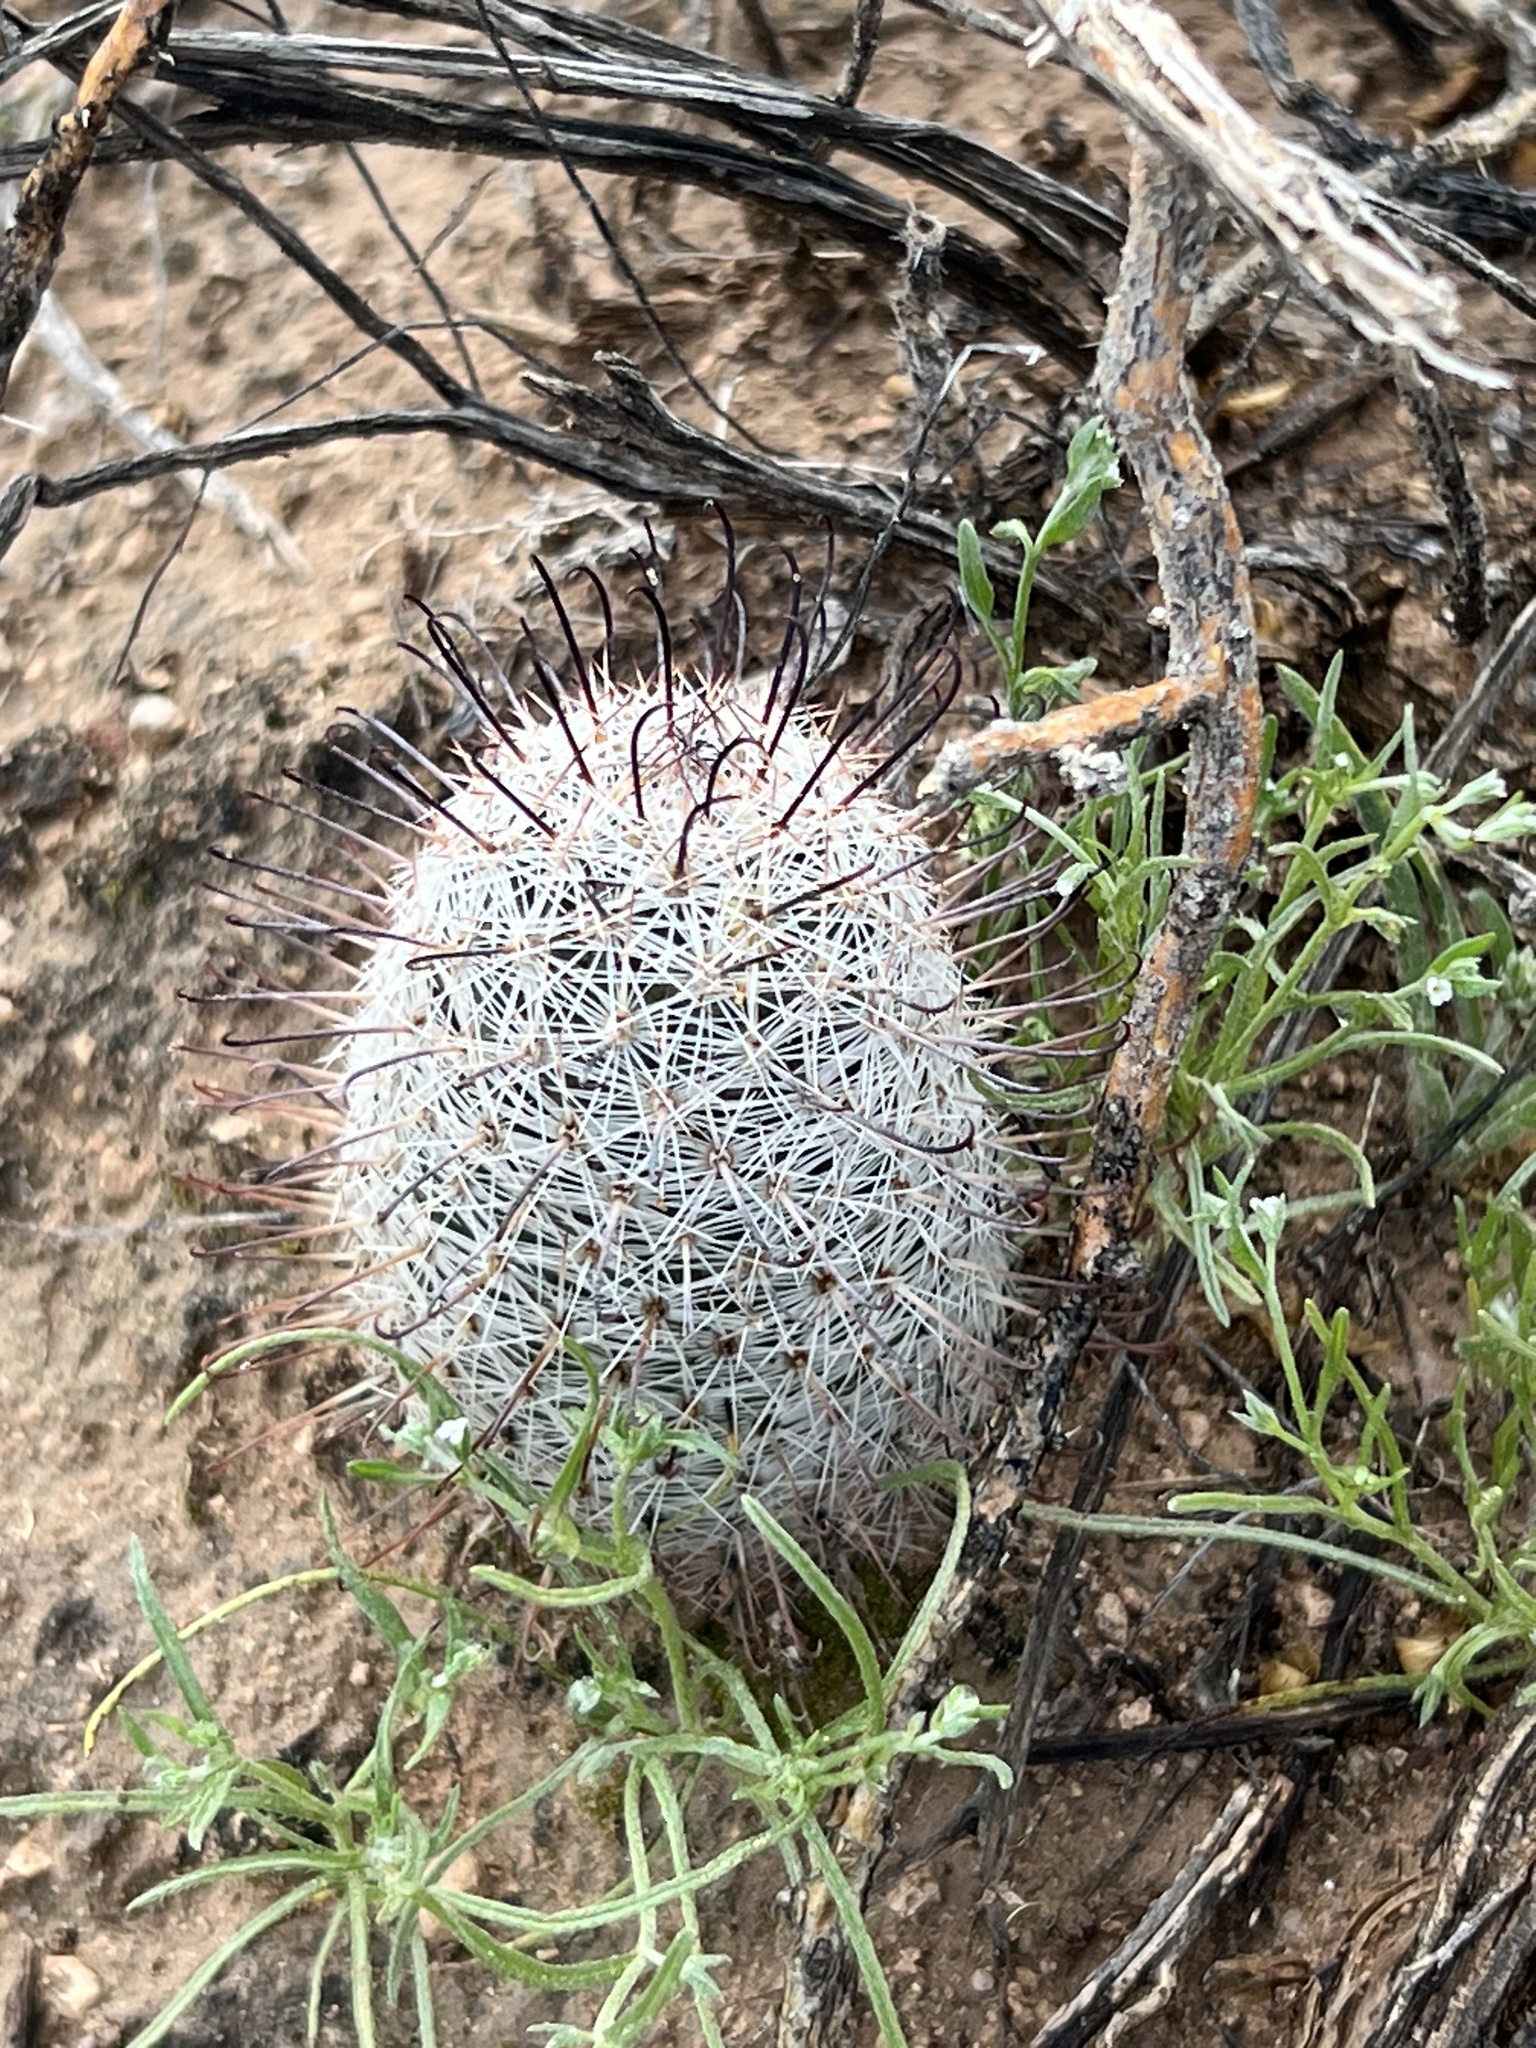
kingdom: Plantae
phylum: Tracheophyta
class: Magnoliopsida
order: Caryophyllales
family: Cactaceae
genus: Cochemiea
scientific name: Cochemiea grahamii
